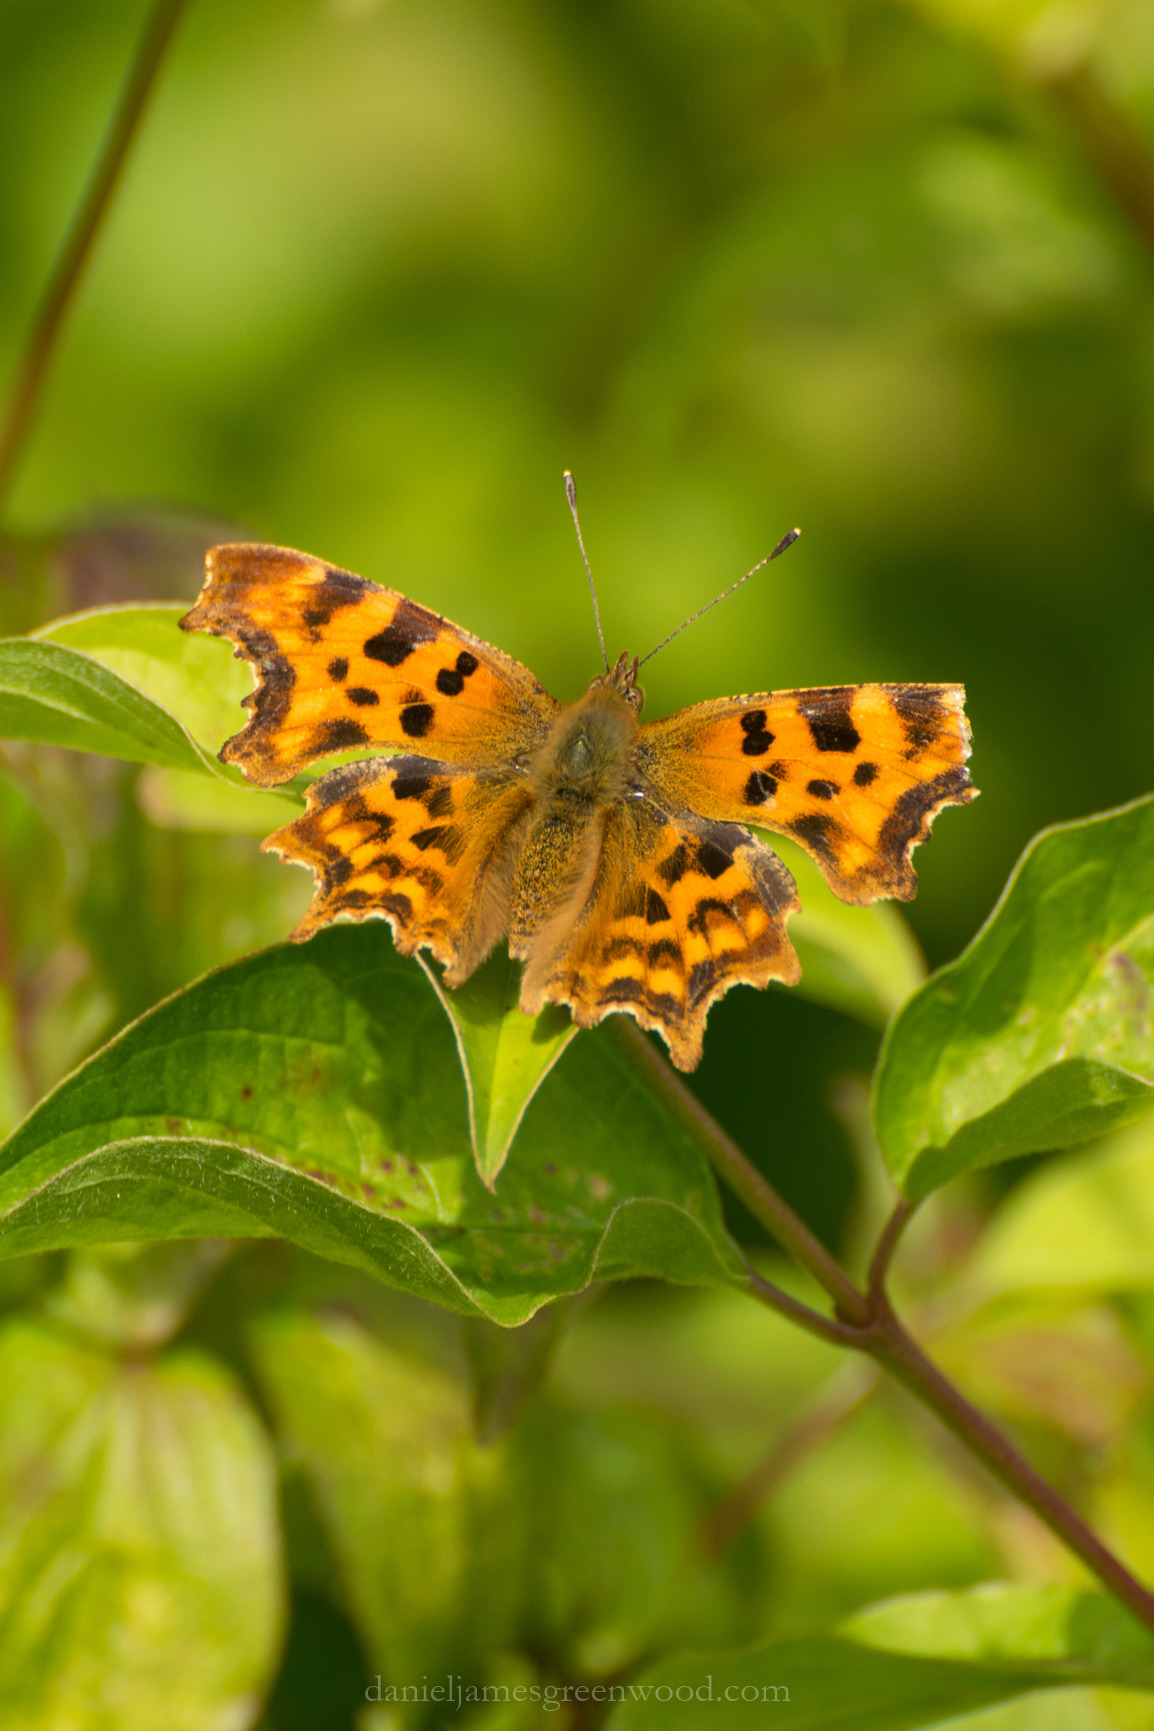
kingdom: Animalia
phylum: Arthropoda
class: Insecta
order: Lepidoptera
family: Nymphalidae
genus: Polygonia
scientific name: Polygonia c-album
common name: Comma
